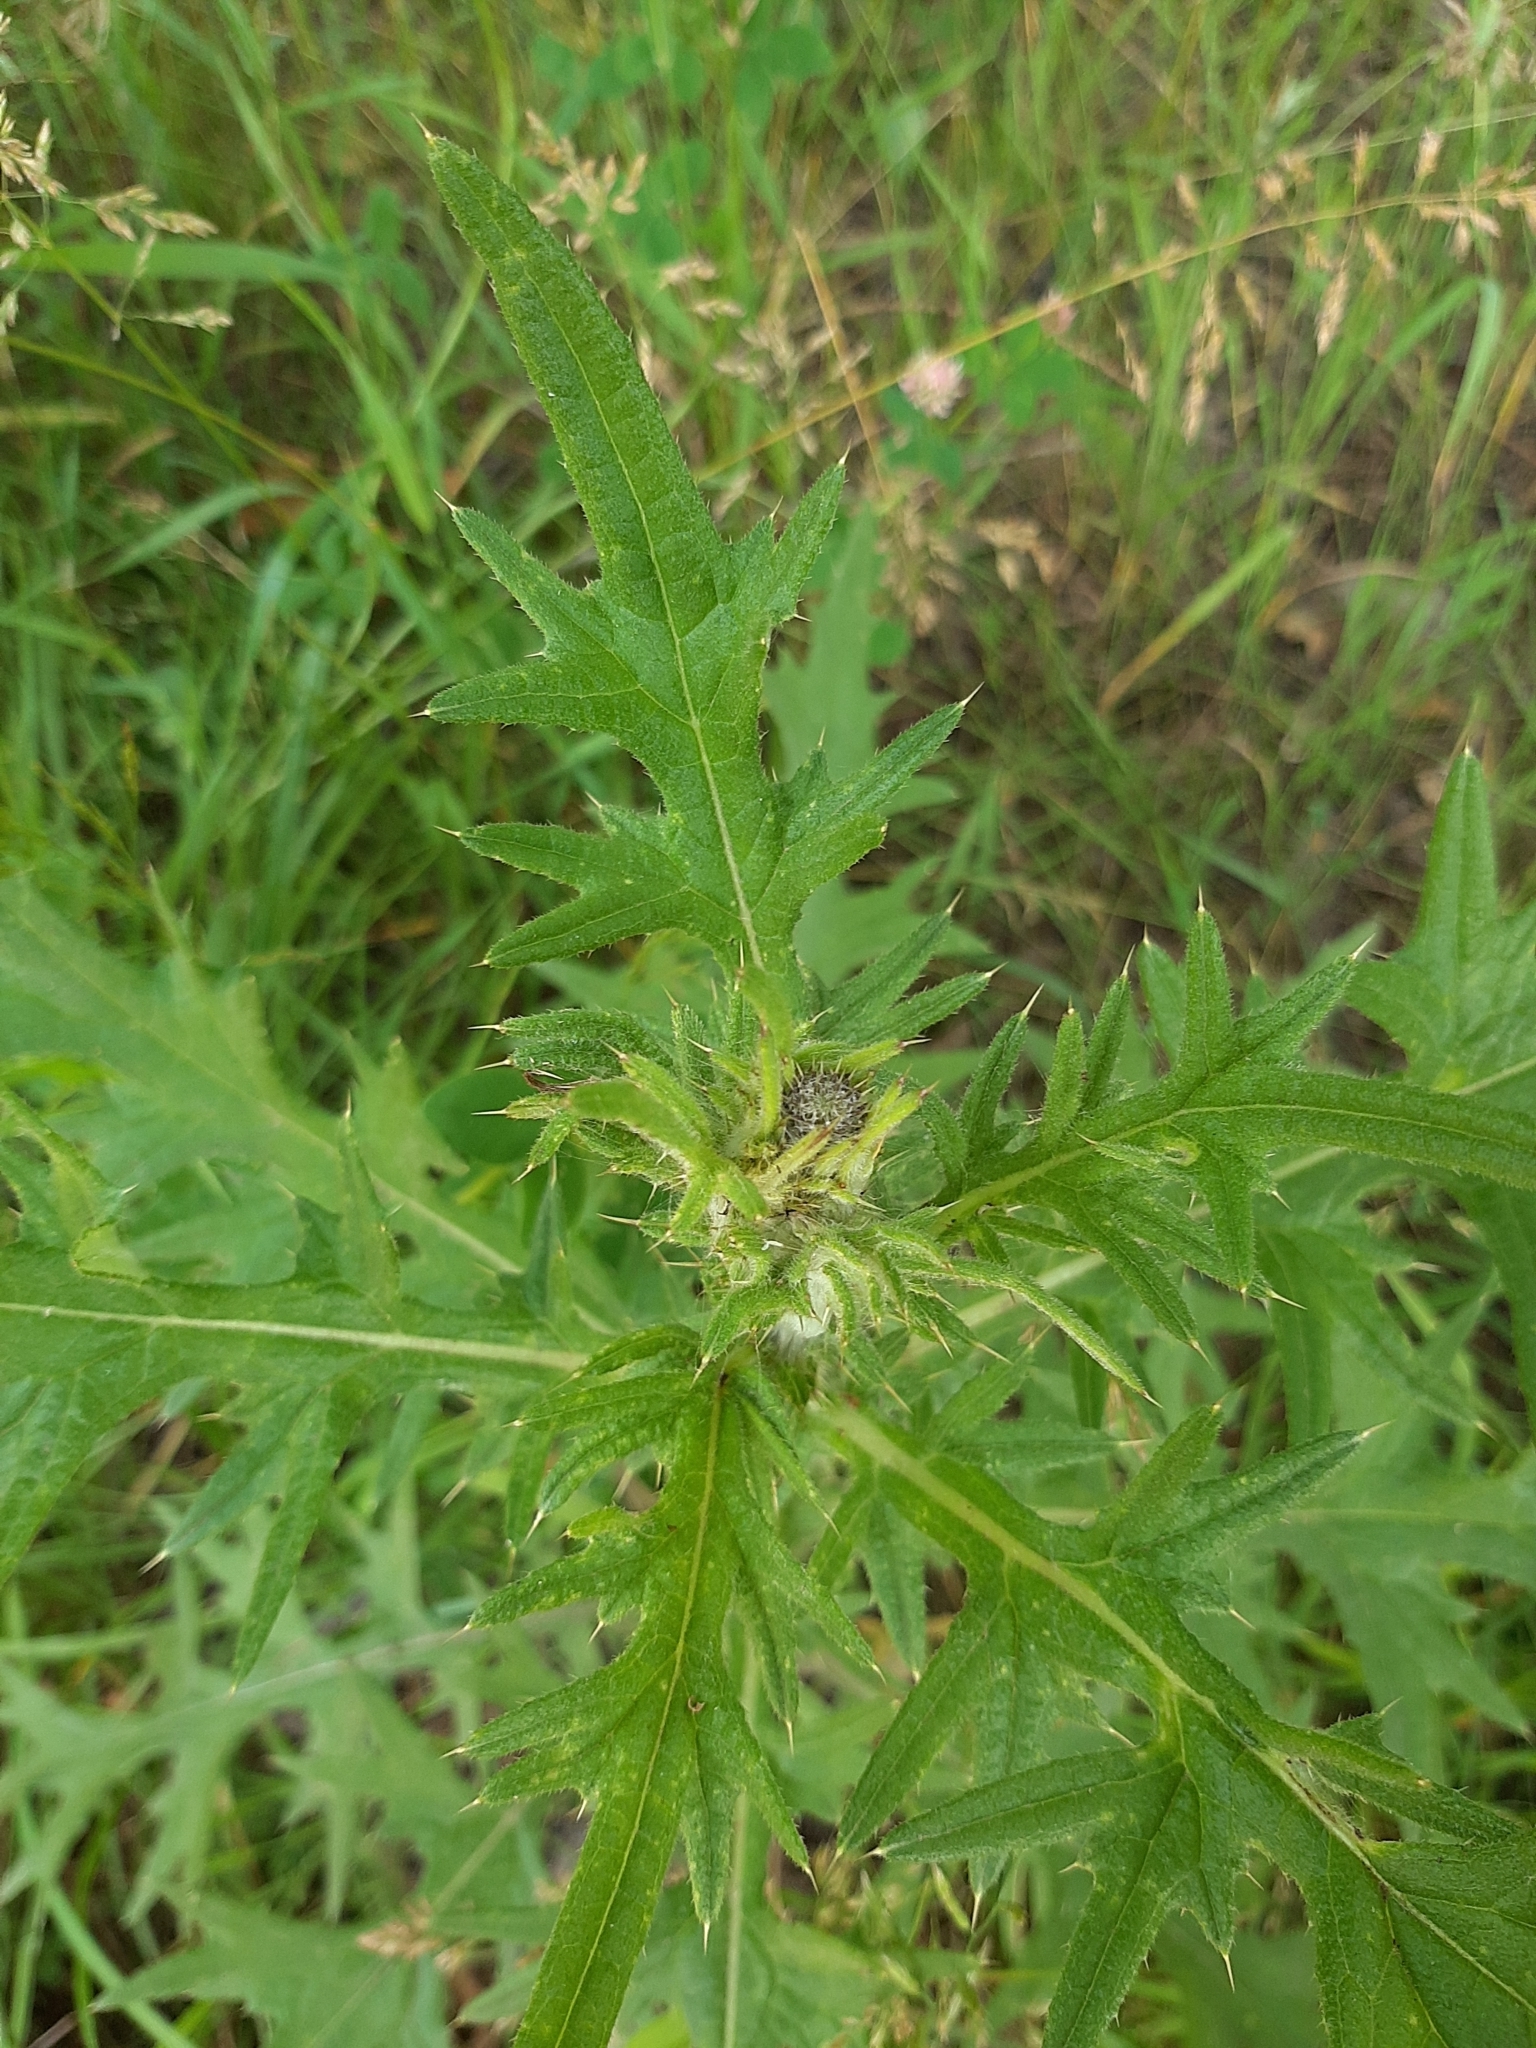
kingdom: Plantae
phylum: Tracheophyta
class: Magnoliopsida
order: Asterales
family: Asteraceae
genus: Cirsium
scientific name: Cirsium vulgare
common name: Bull thistle
